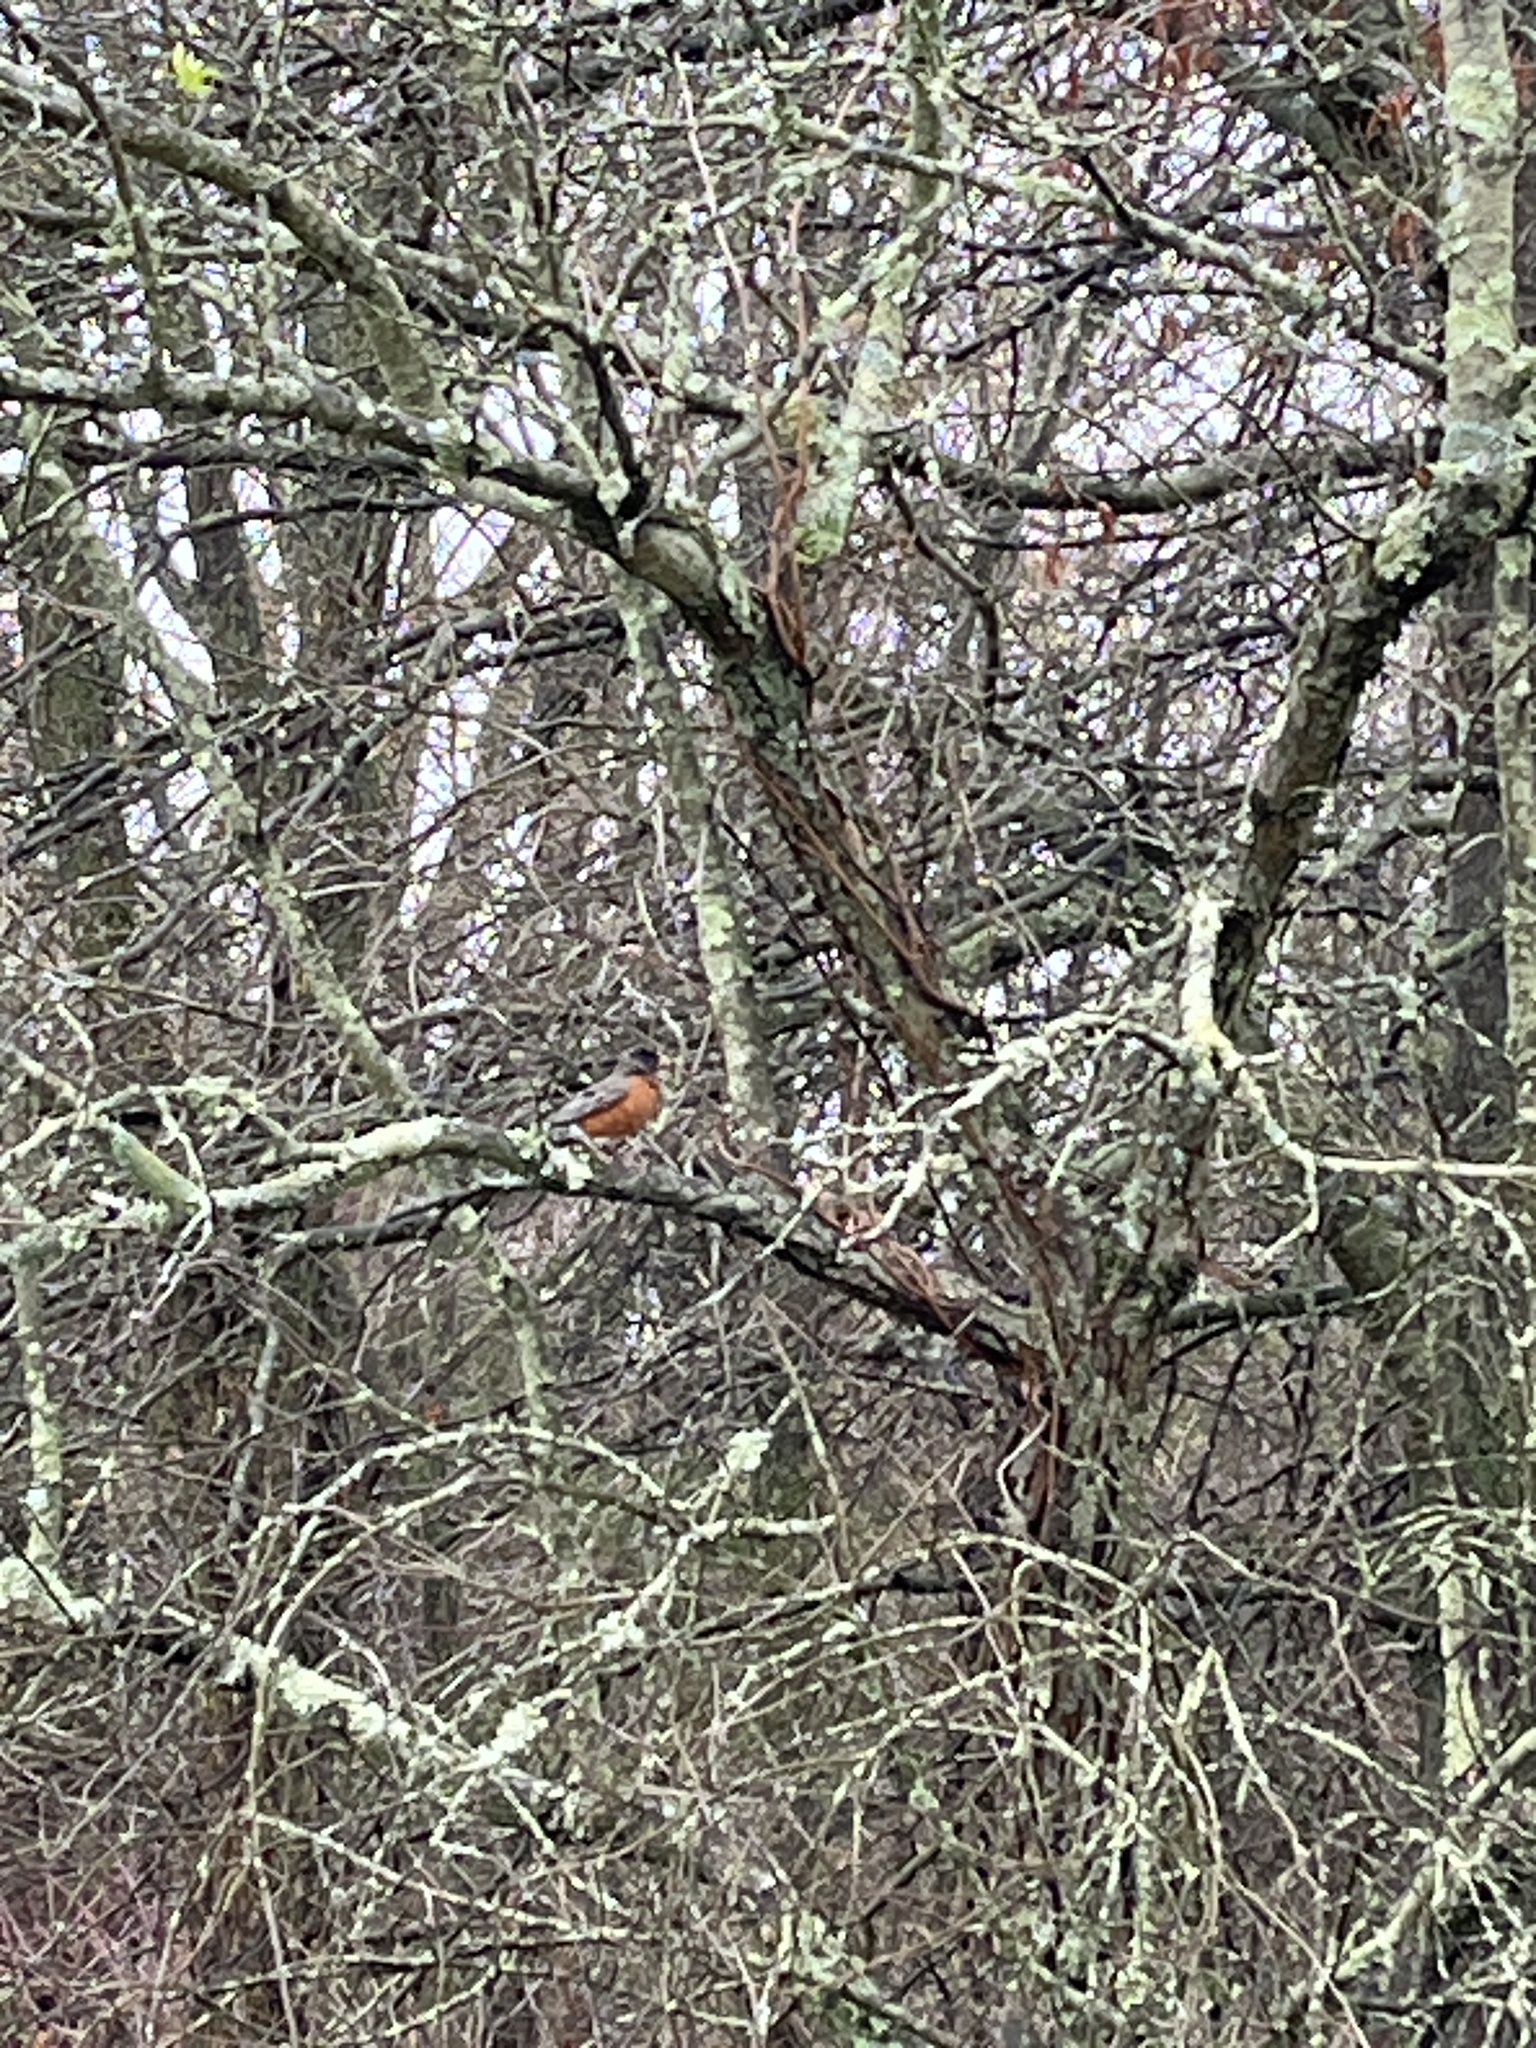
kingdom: Animalia
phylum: Chordata
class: Aves
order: Passeriformes
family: Turdidae
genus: Turdus
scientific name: Turdus migratorius
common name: American robin
